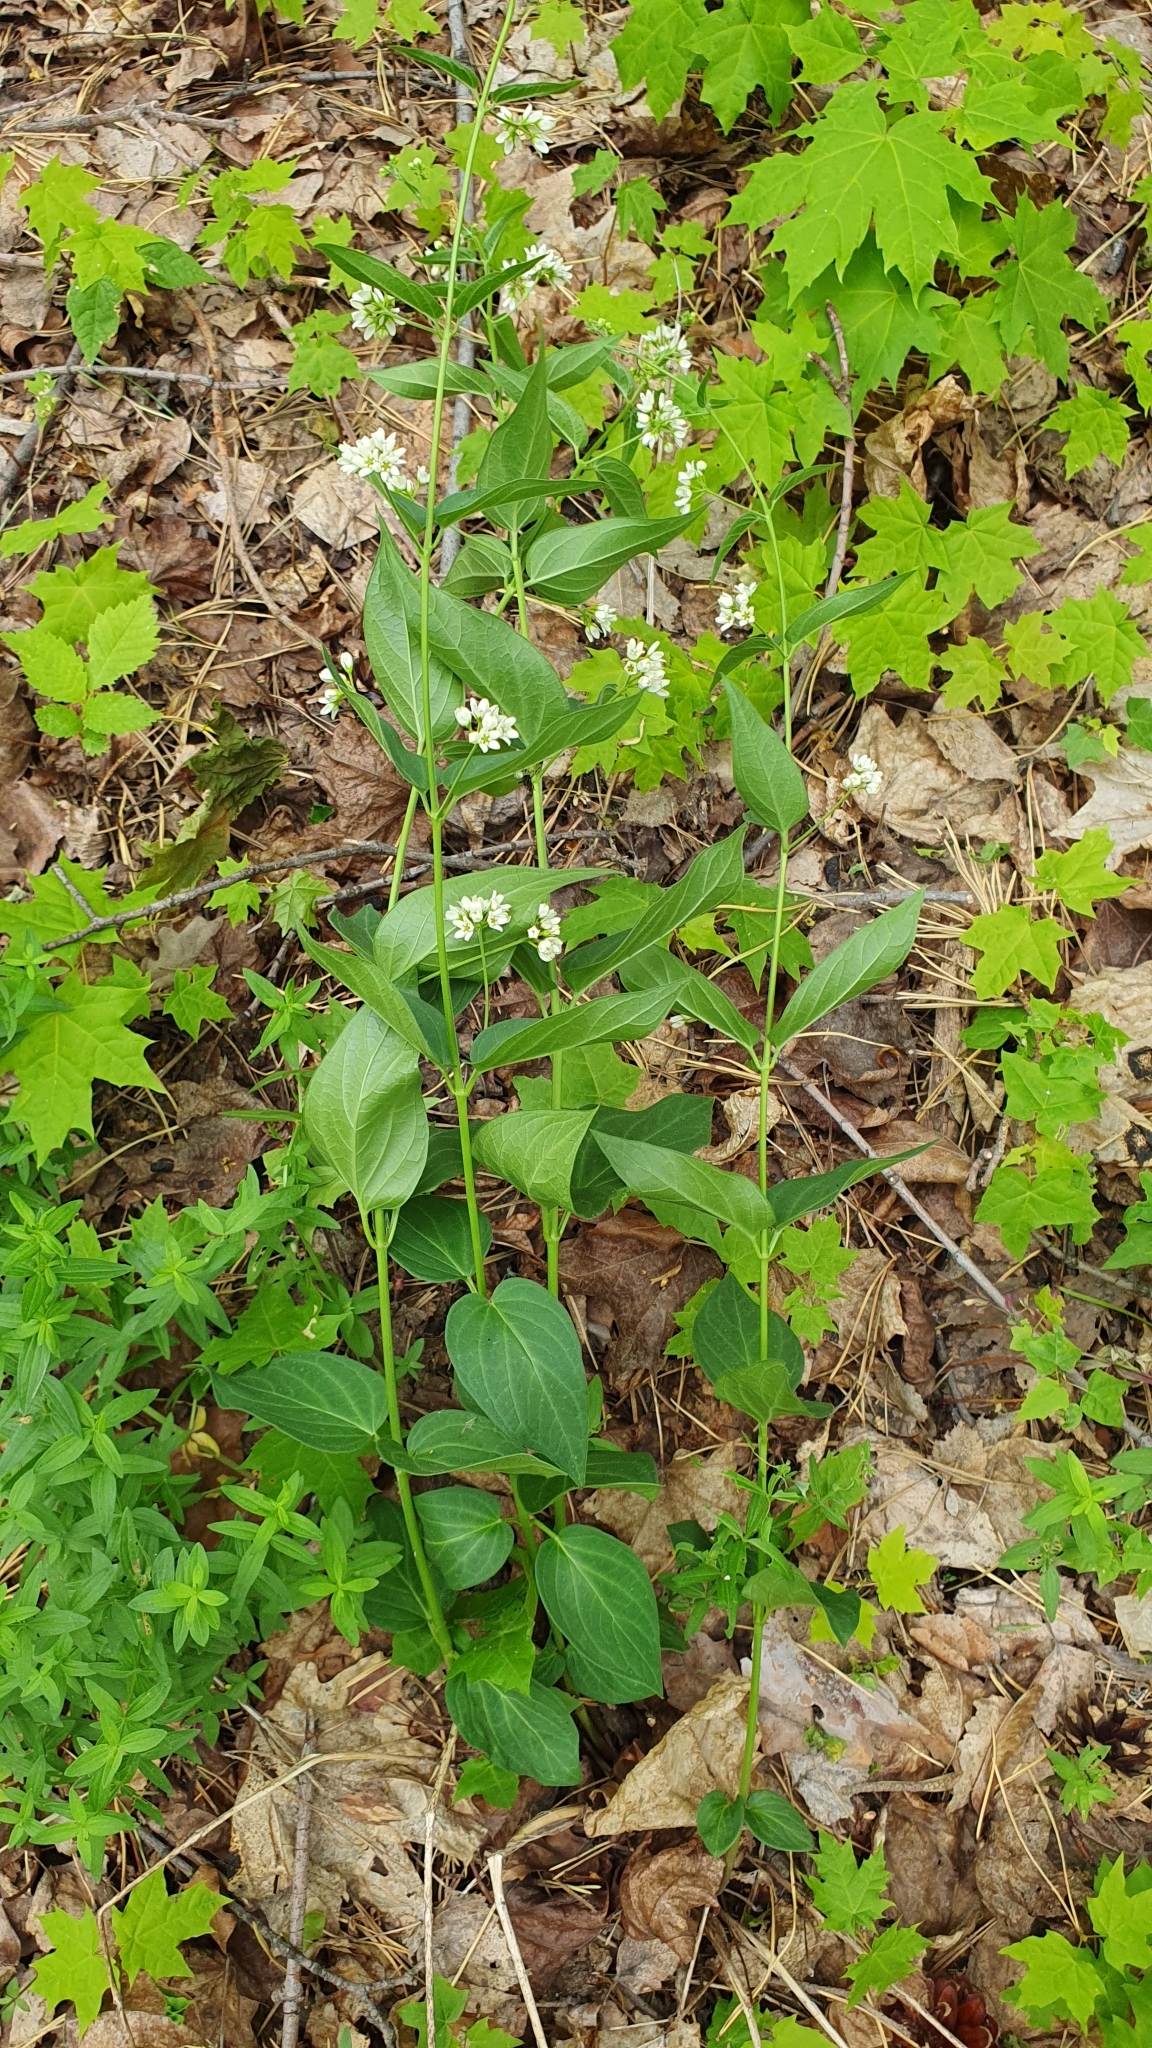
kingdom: Plantae
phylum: Tracheophyta
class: Magnoliopsida
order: Gentianales
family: Apocynaceae
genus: Vincetoxicum
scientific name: Vincetoxicum hirundinaria
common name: White swallowwort
